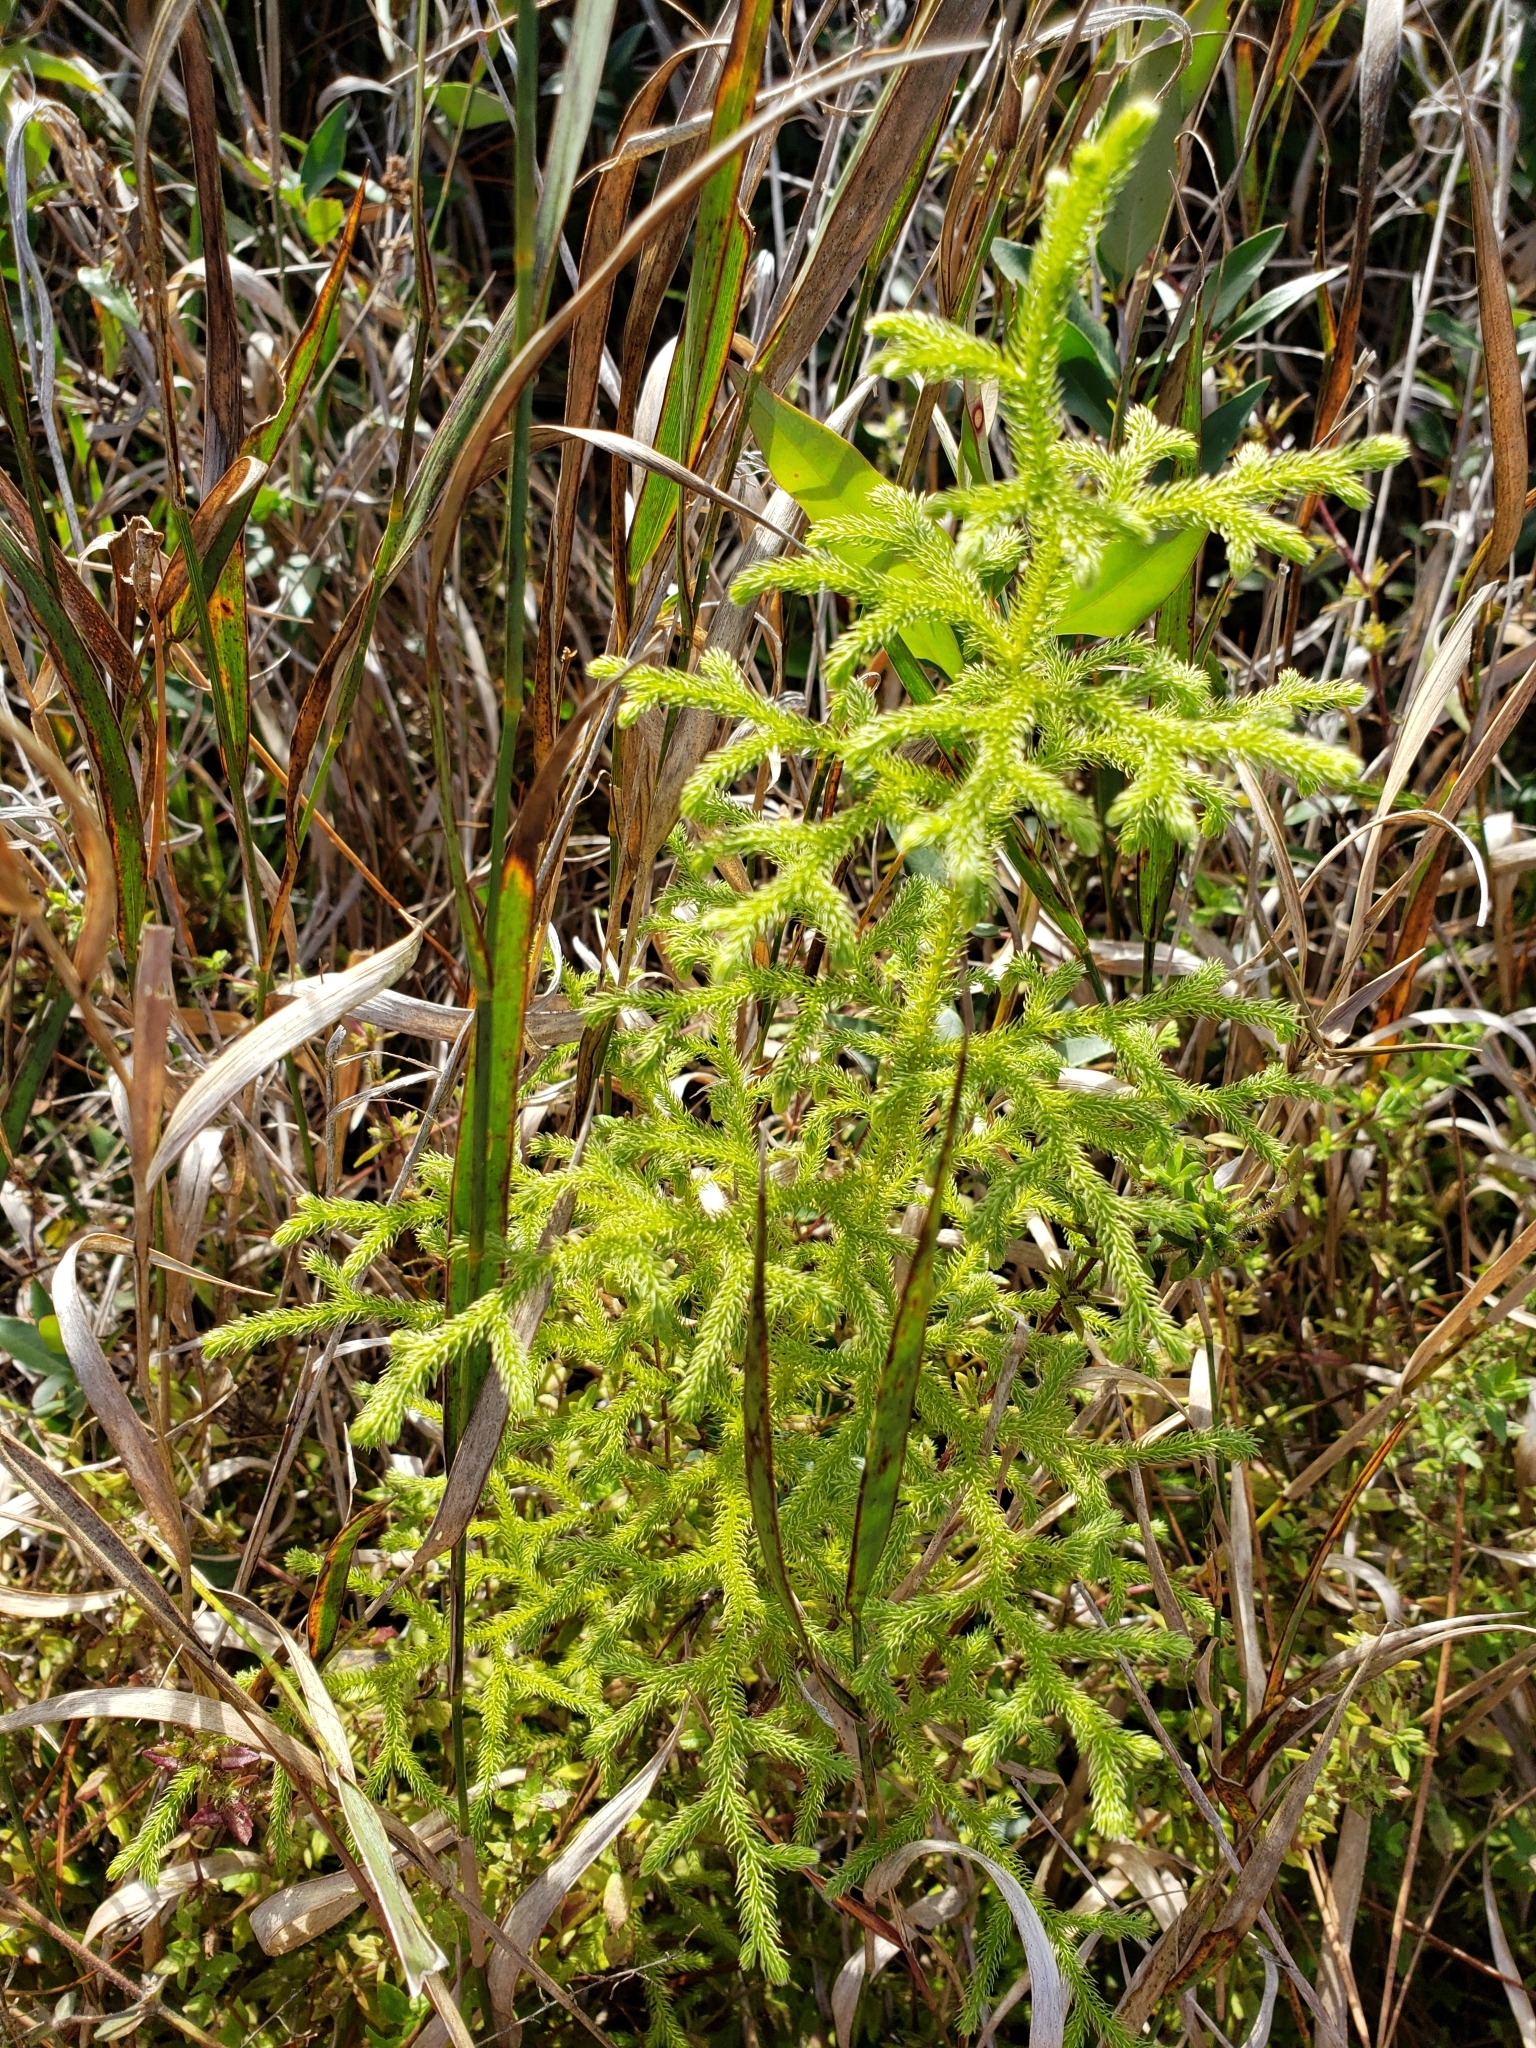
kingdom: Plantae
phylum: Tracheophyta
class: Lycopodiopsida
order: Lycopodiales
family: Lycopodiaceae
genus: Palhinhaea
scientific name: Palhinhaea cernua
